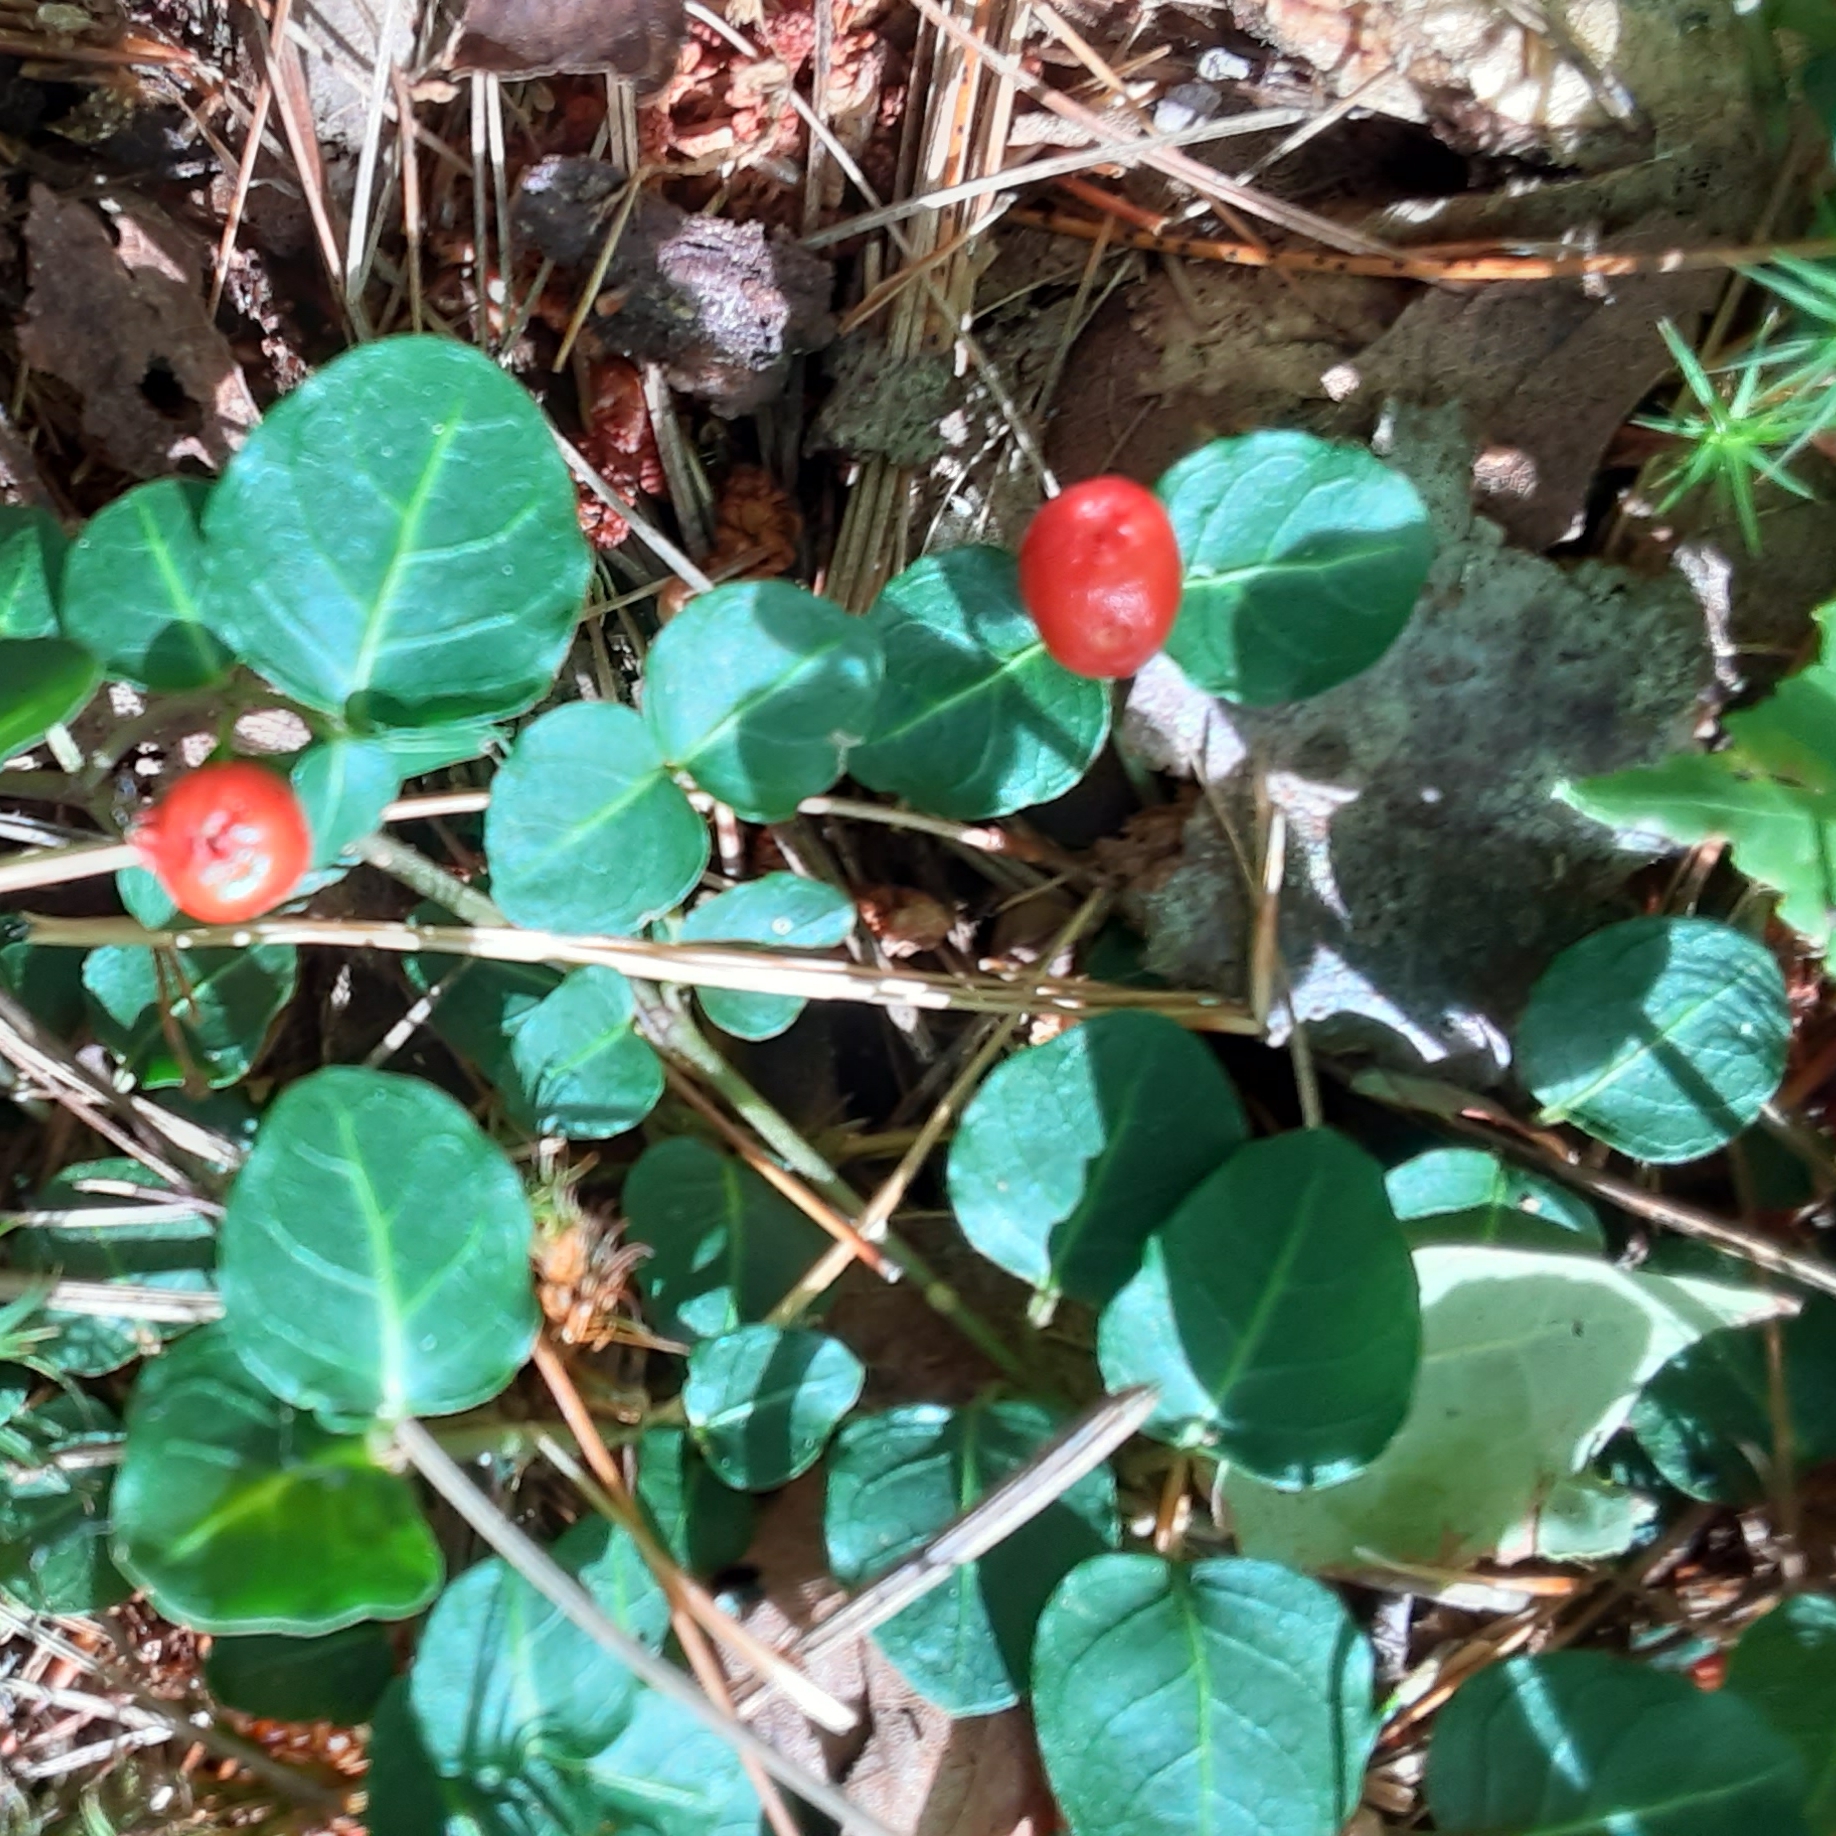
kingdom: Plantae
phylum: Tracheophyta
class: Magnoliopsida
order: Gentianales
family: Rubiaceae
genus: Mitchella
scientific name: Mitchella repens
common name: Partridge-berry
